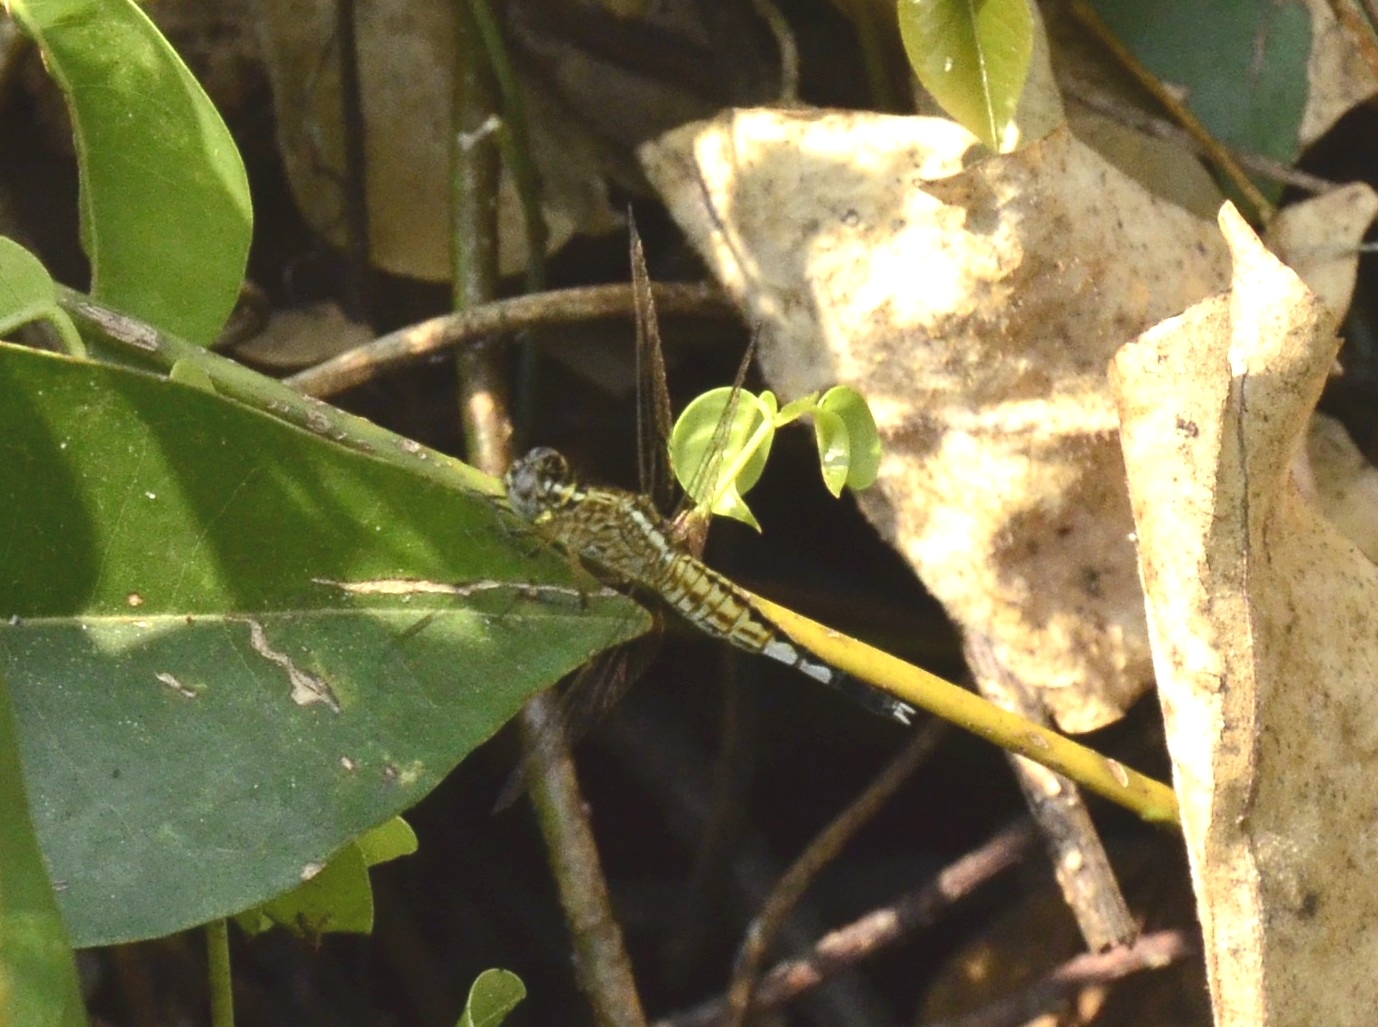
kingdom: Animalia
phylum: Arthropoda
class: Insecta
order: Odonata
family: Libellulidae
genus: Acisoma
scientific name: Acisoma panorpoides
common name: Asian pintail
